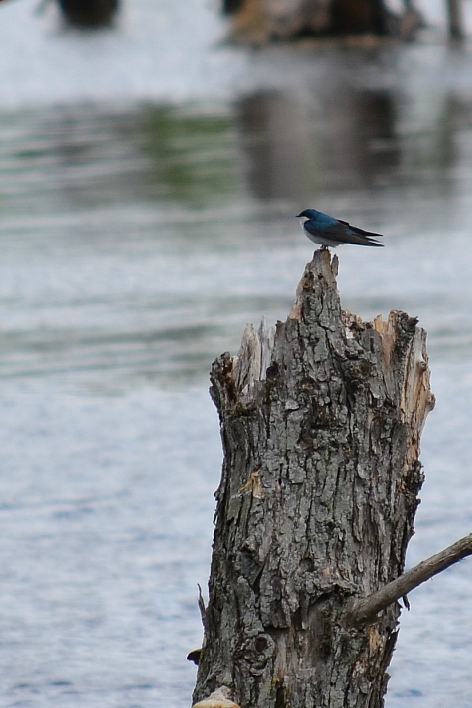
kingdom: Animalia
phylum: Chordata
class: Aves
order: Passeriformes
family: Hirundinidae
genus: Tachycineta
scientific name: Tachycineta bicolor
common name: Tree swallow
